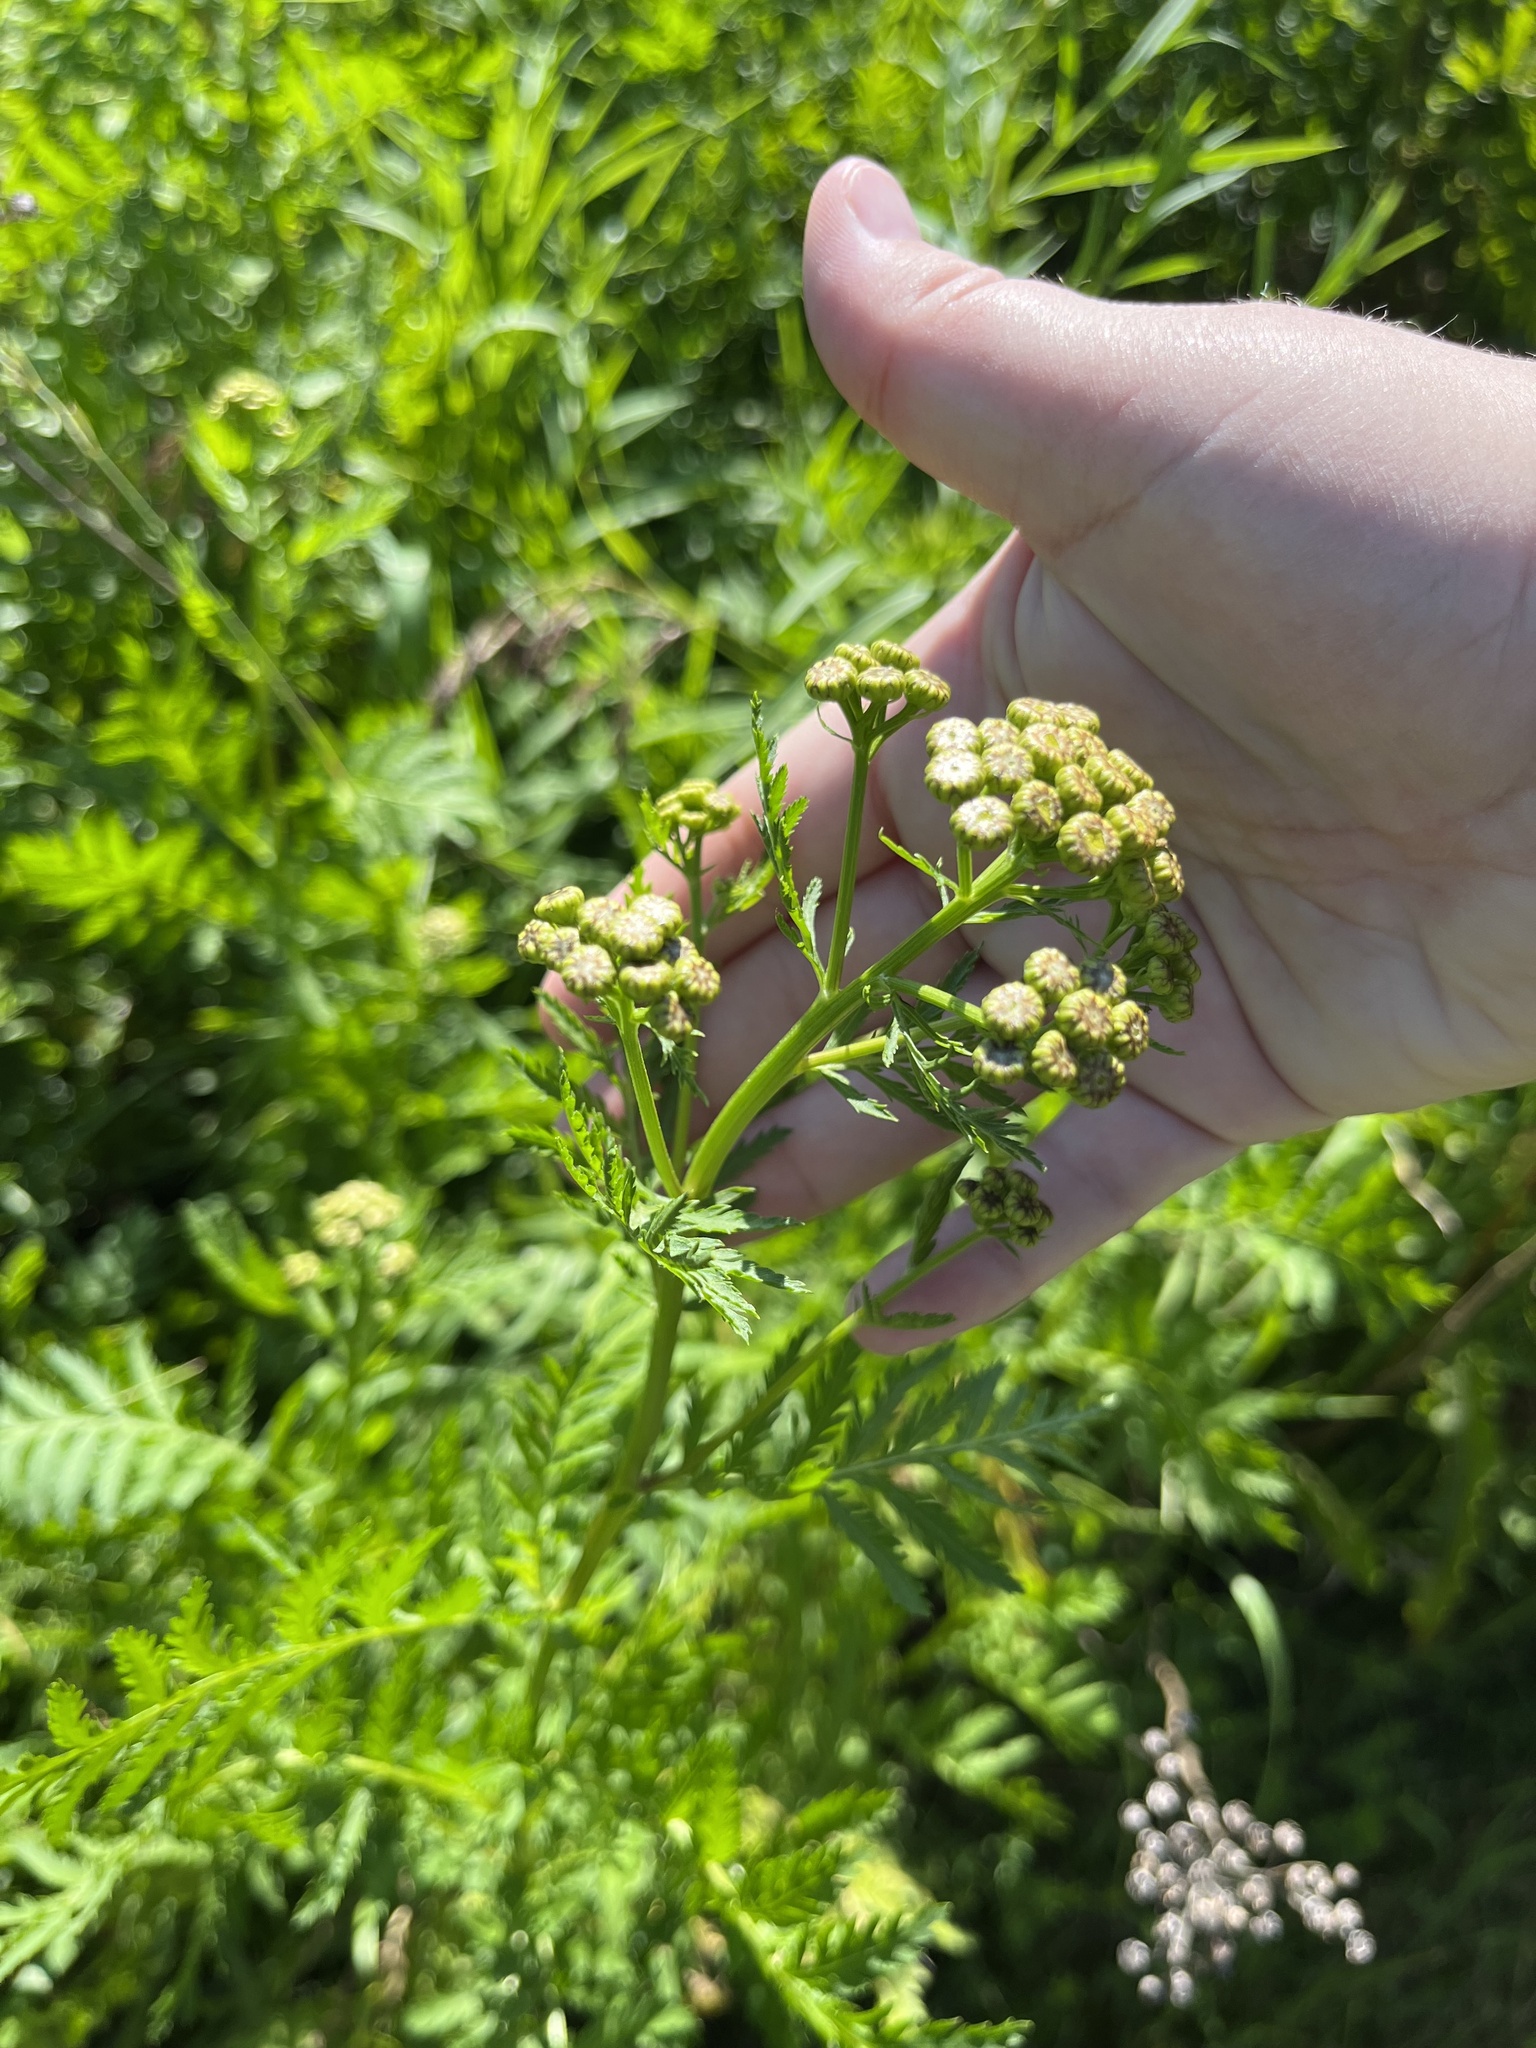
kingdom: Plantae
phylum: Tracheophyta
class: Magnoliopsida
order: Asterales
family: Asteraceae
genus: Tanacetum
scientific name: Tanacetum vulgare
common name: Common tansy
